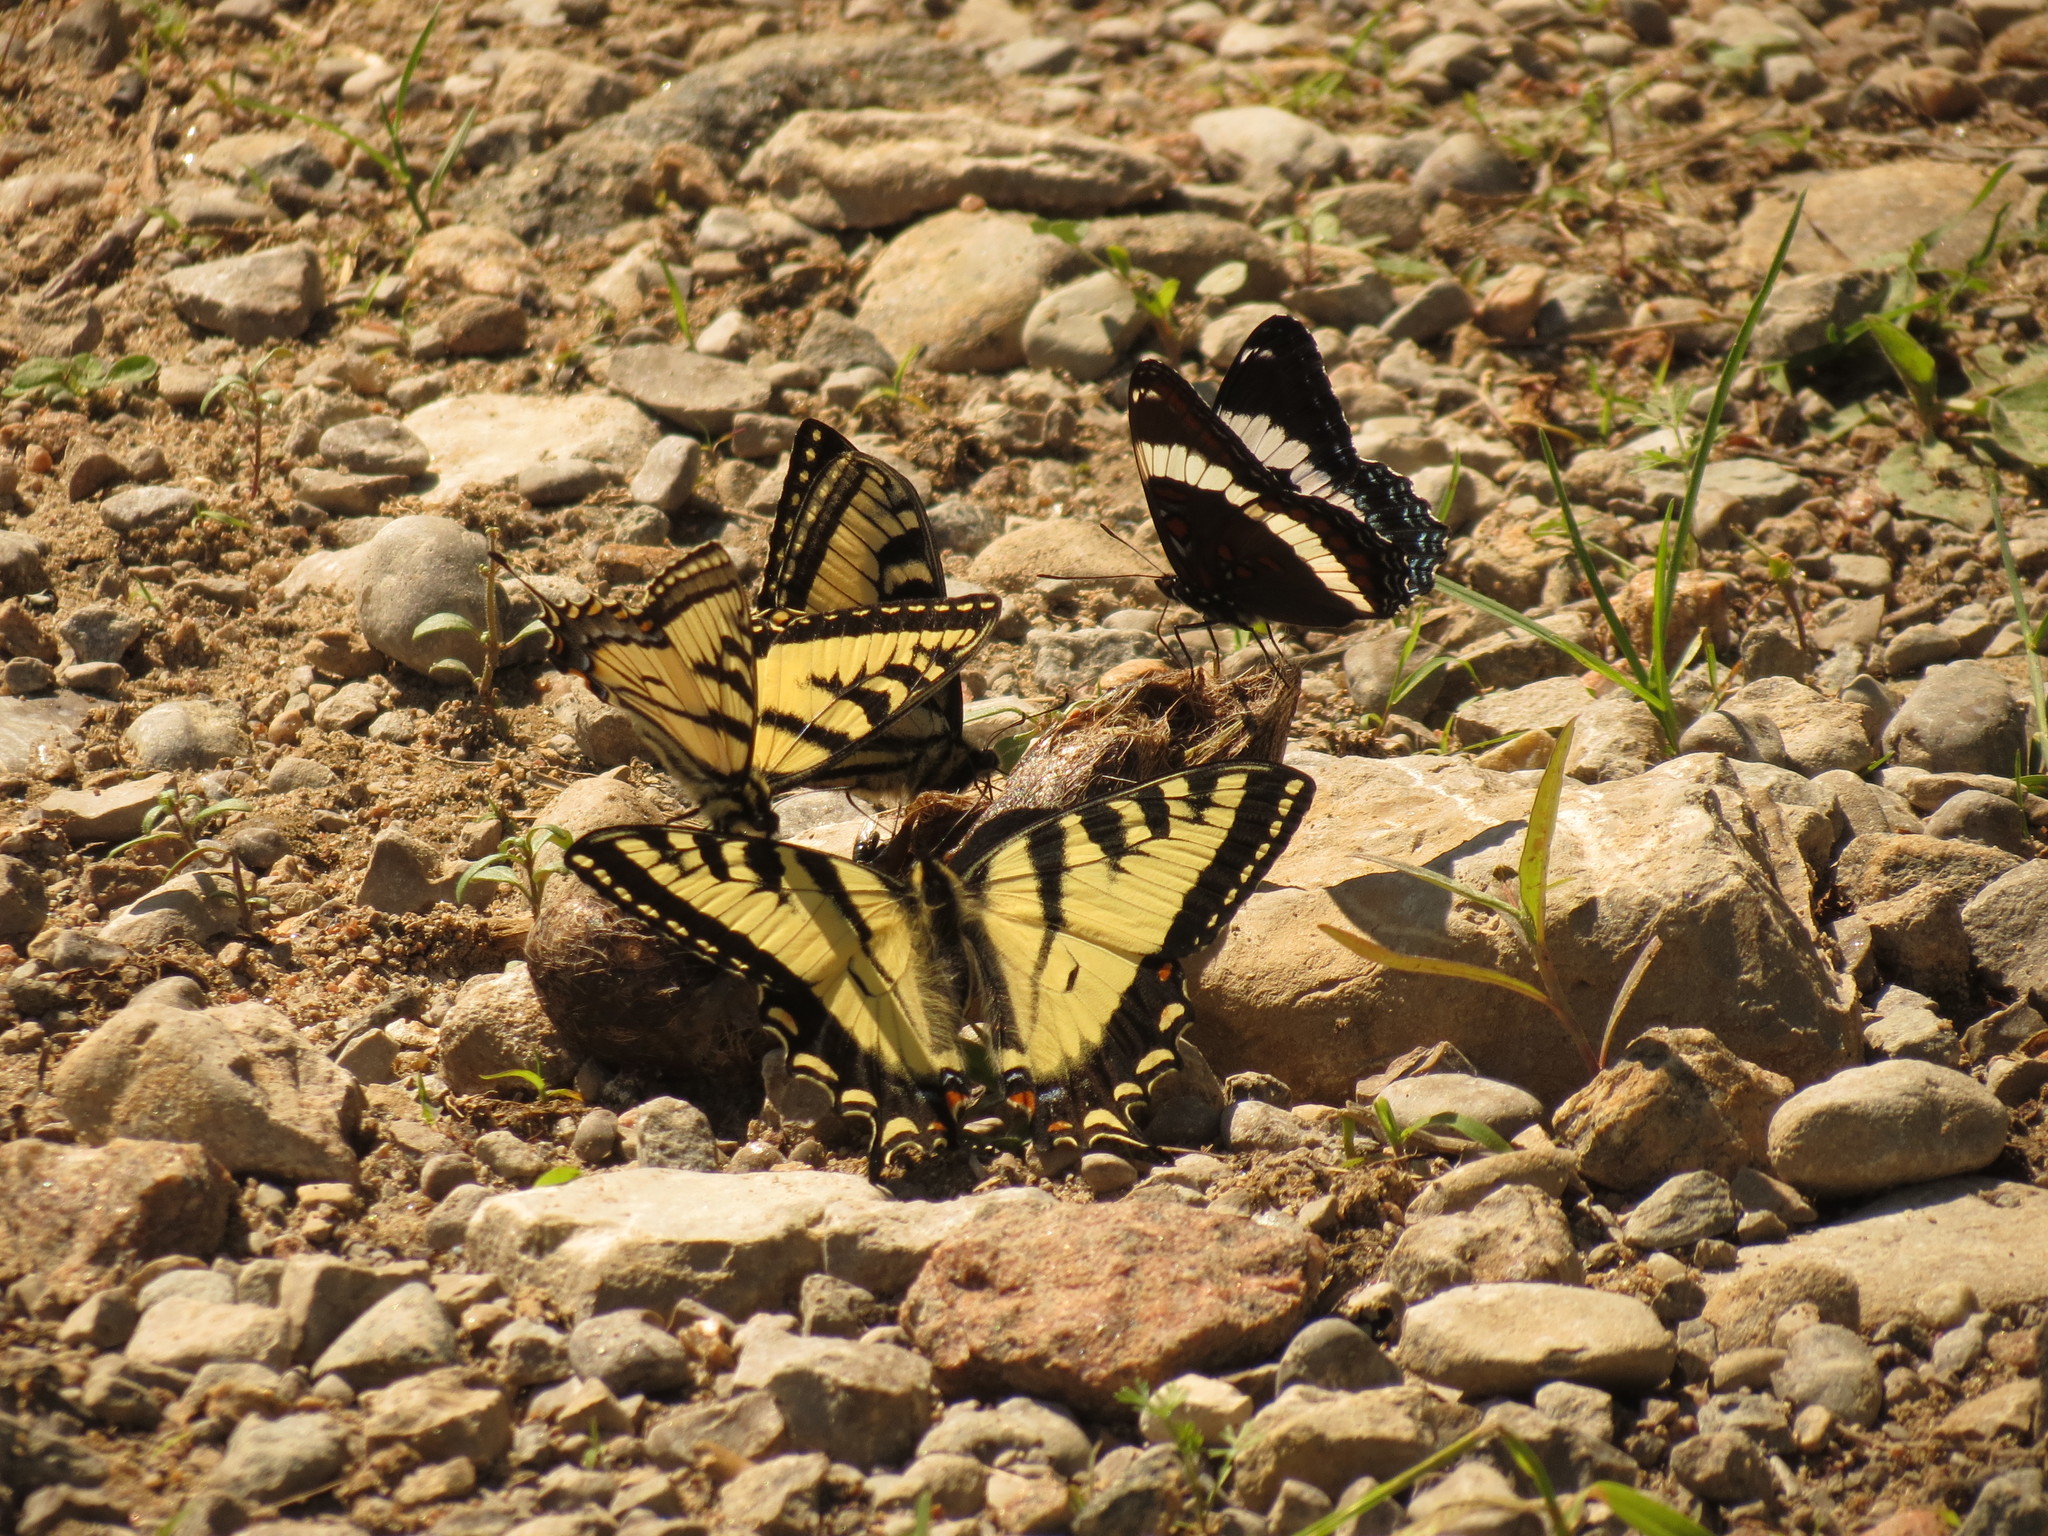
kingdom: Animalia
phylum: Arthropoda
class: Insecta
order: Lepidoptera
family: Nymphalidae
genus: Limenitis
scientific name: Limenitis arthemis
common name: Red-spotted admiral
